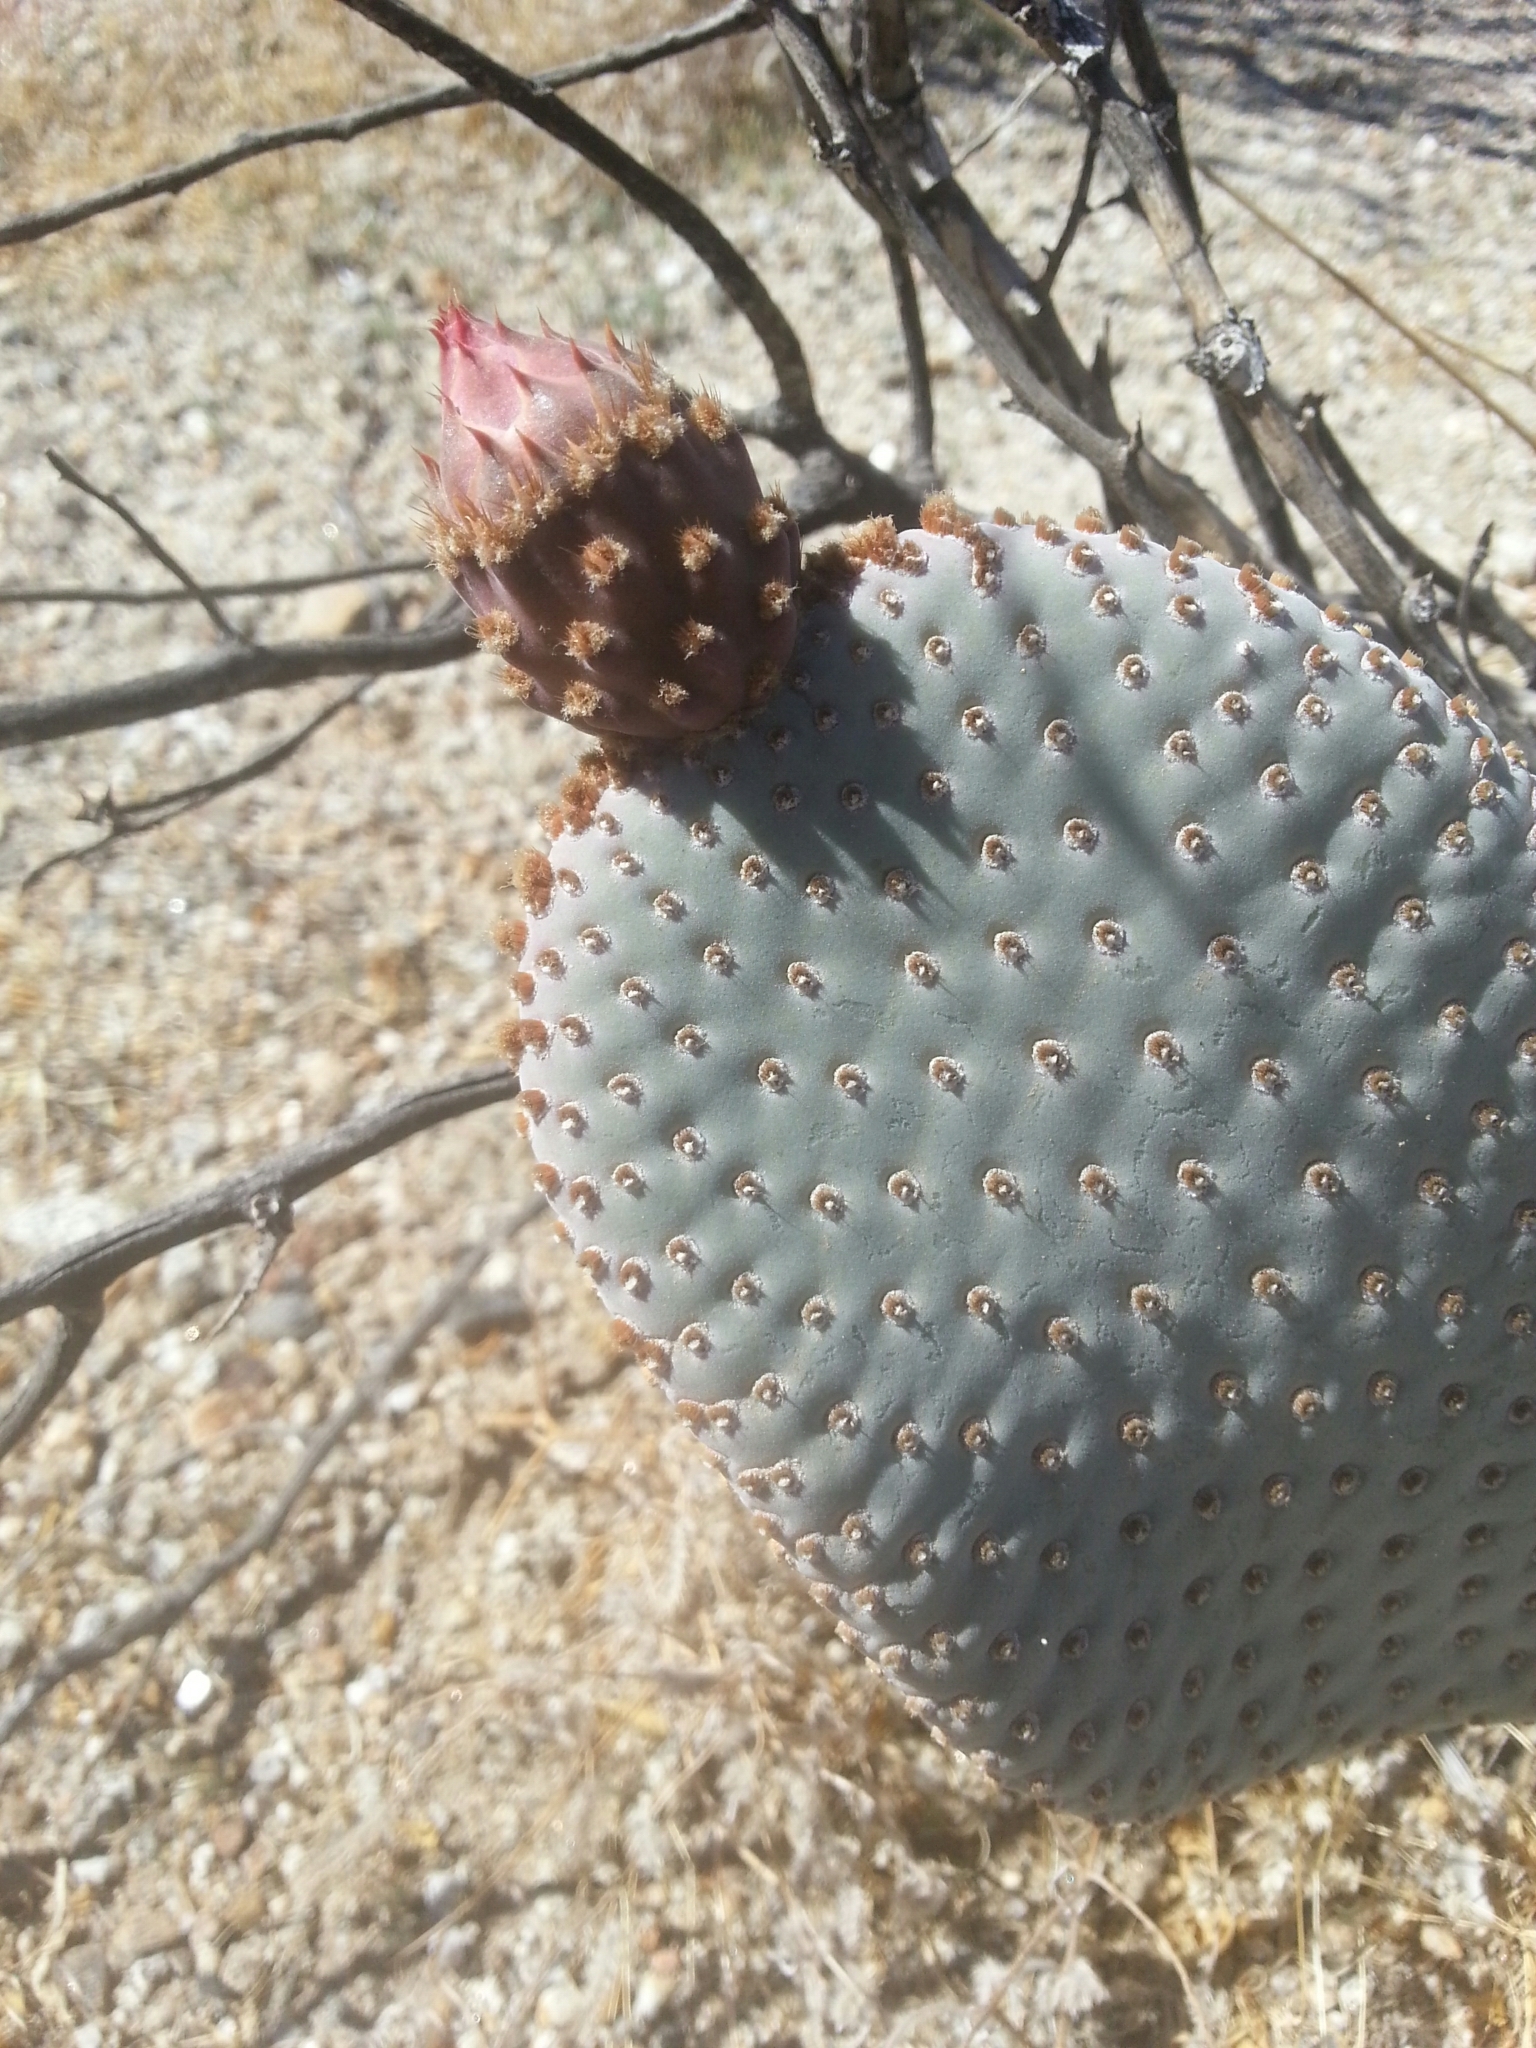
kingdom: Plantae
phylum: Tracheophyta
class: Magnoliopsida
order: Caryophyllales
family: Cactaceae
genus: Opuntia
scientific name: Opuntia basilaris
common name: Beavertail prickly-pear
